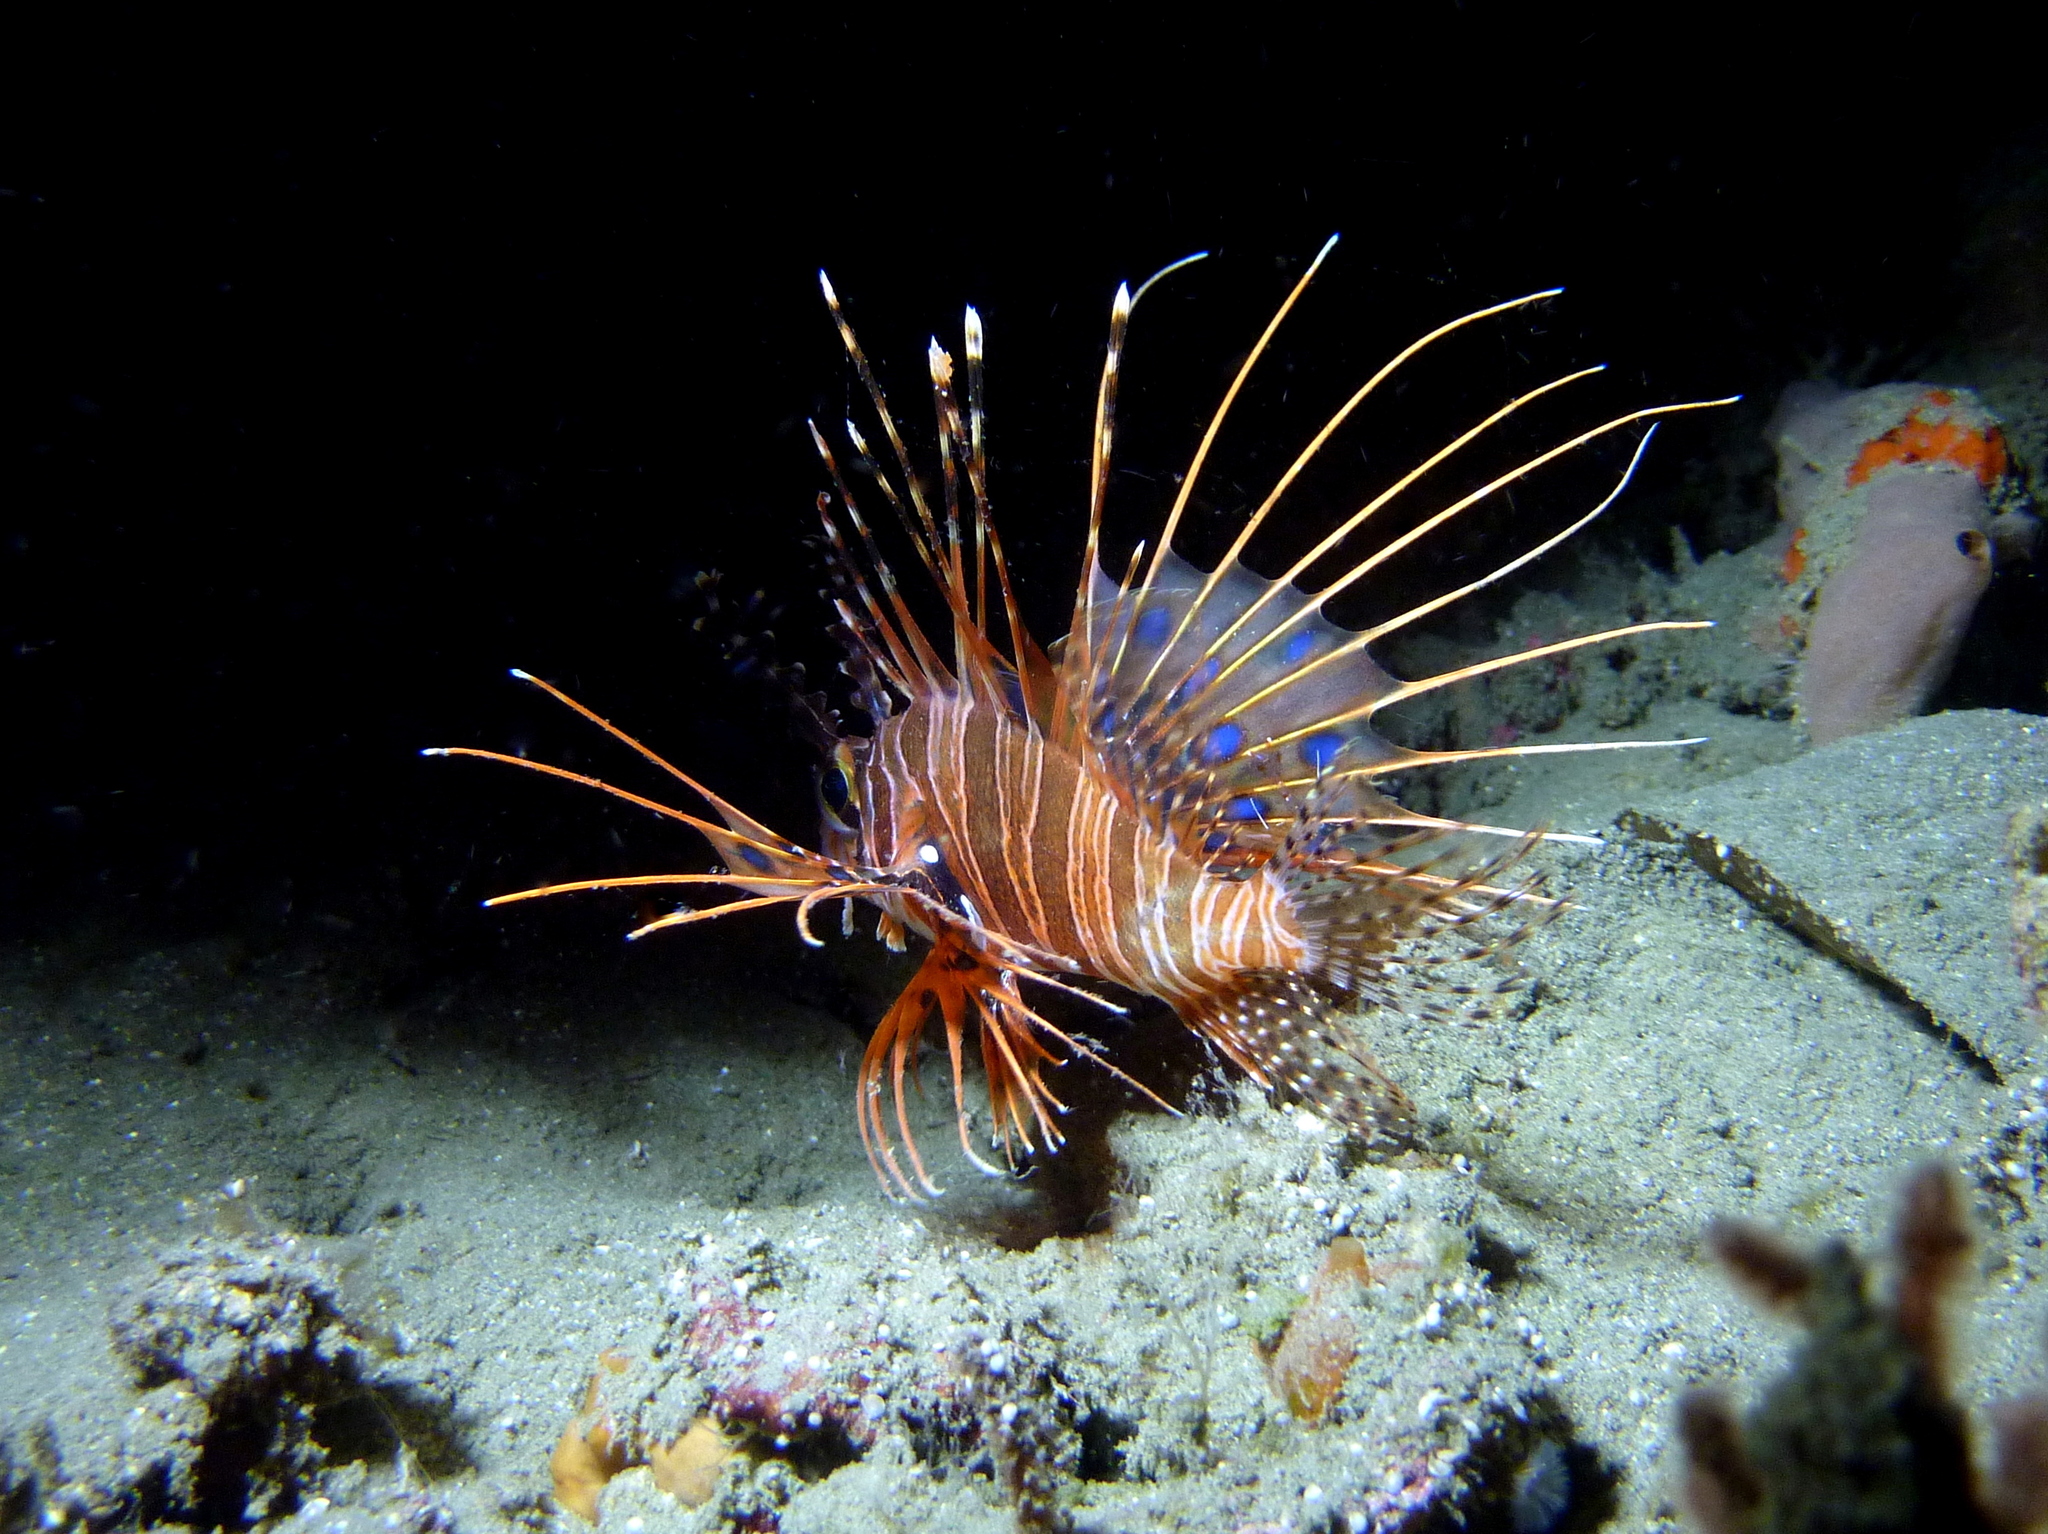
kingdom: Animalia
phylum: Chordata
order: Scorpaeniformes
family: Scorpaenidae
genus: Pterois
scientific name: Pterois antennata
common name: Spotfin lionfish
